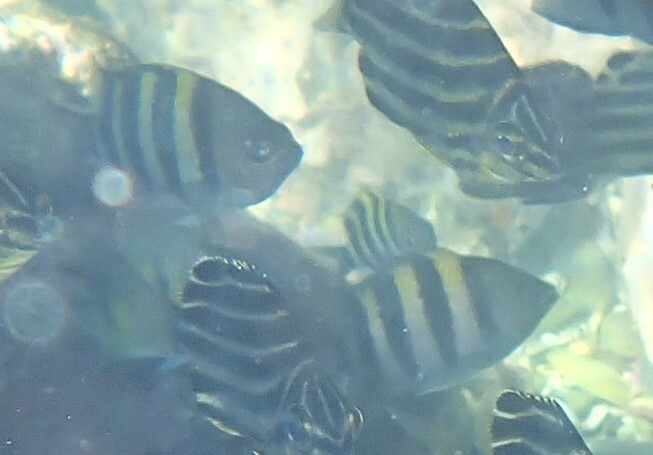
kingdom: Animalia
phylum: Chordata
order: Perciformes
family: Pomacentridae
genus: Abudefduf
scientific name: Abudefduf vaigiensis
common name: Indo-pacific sergeant
